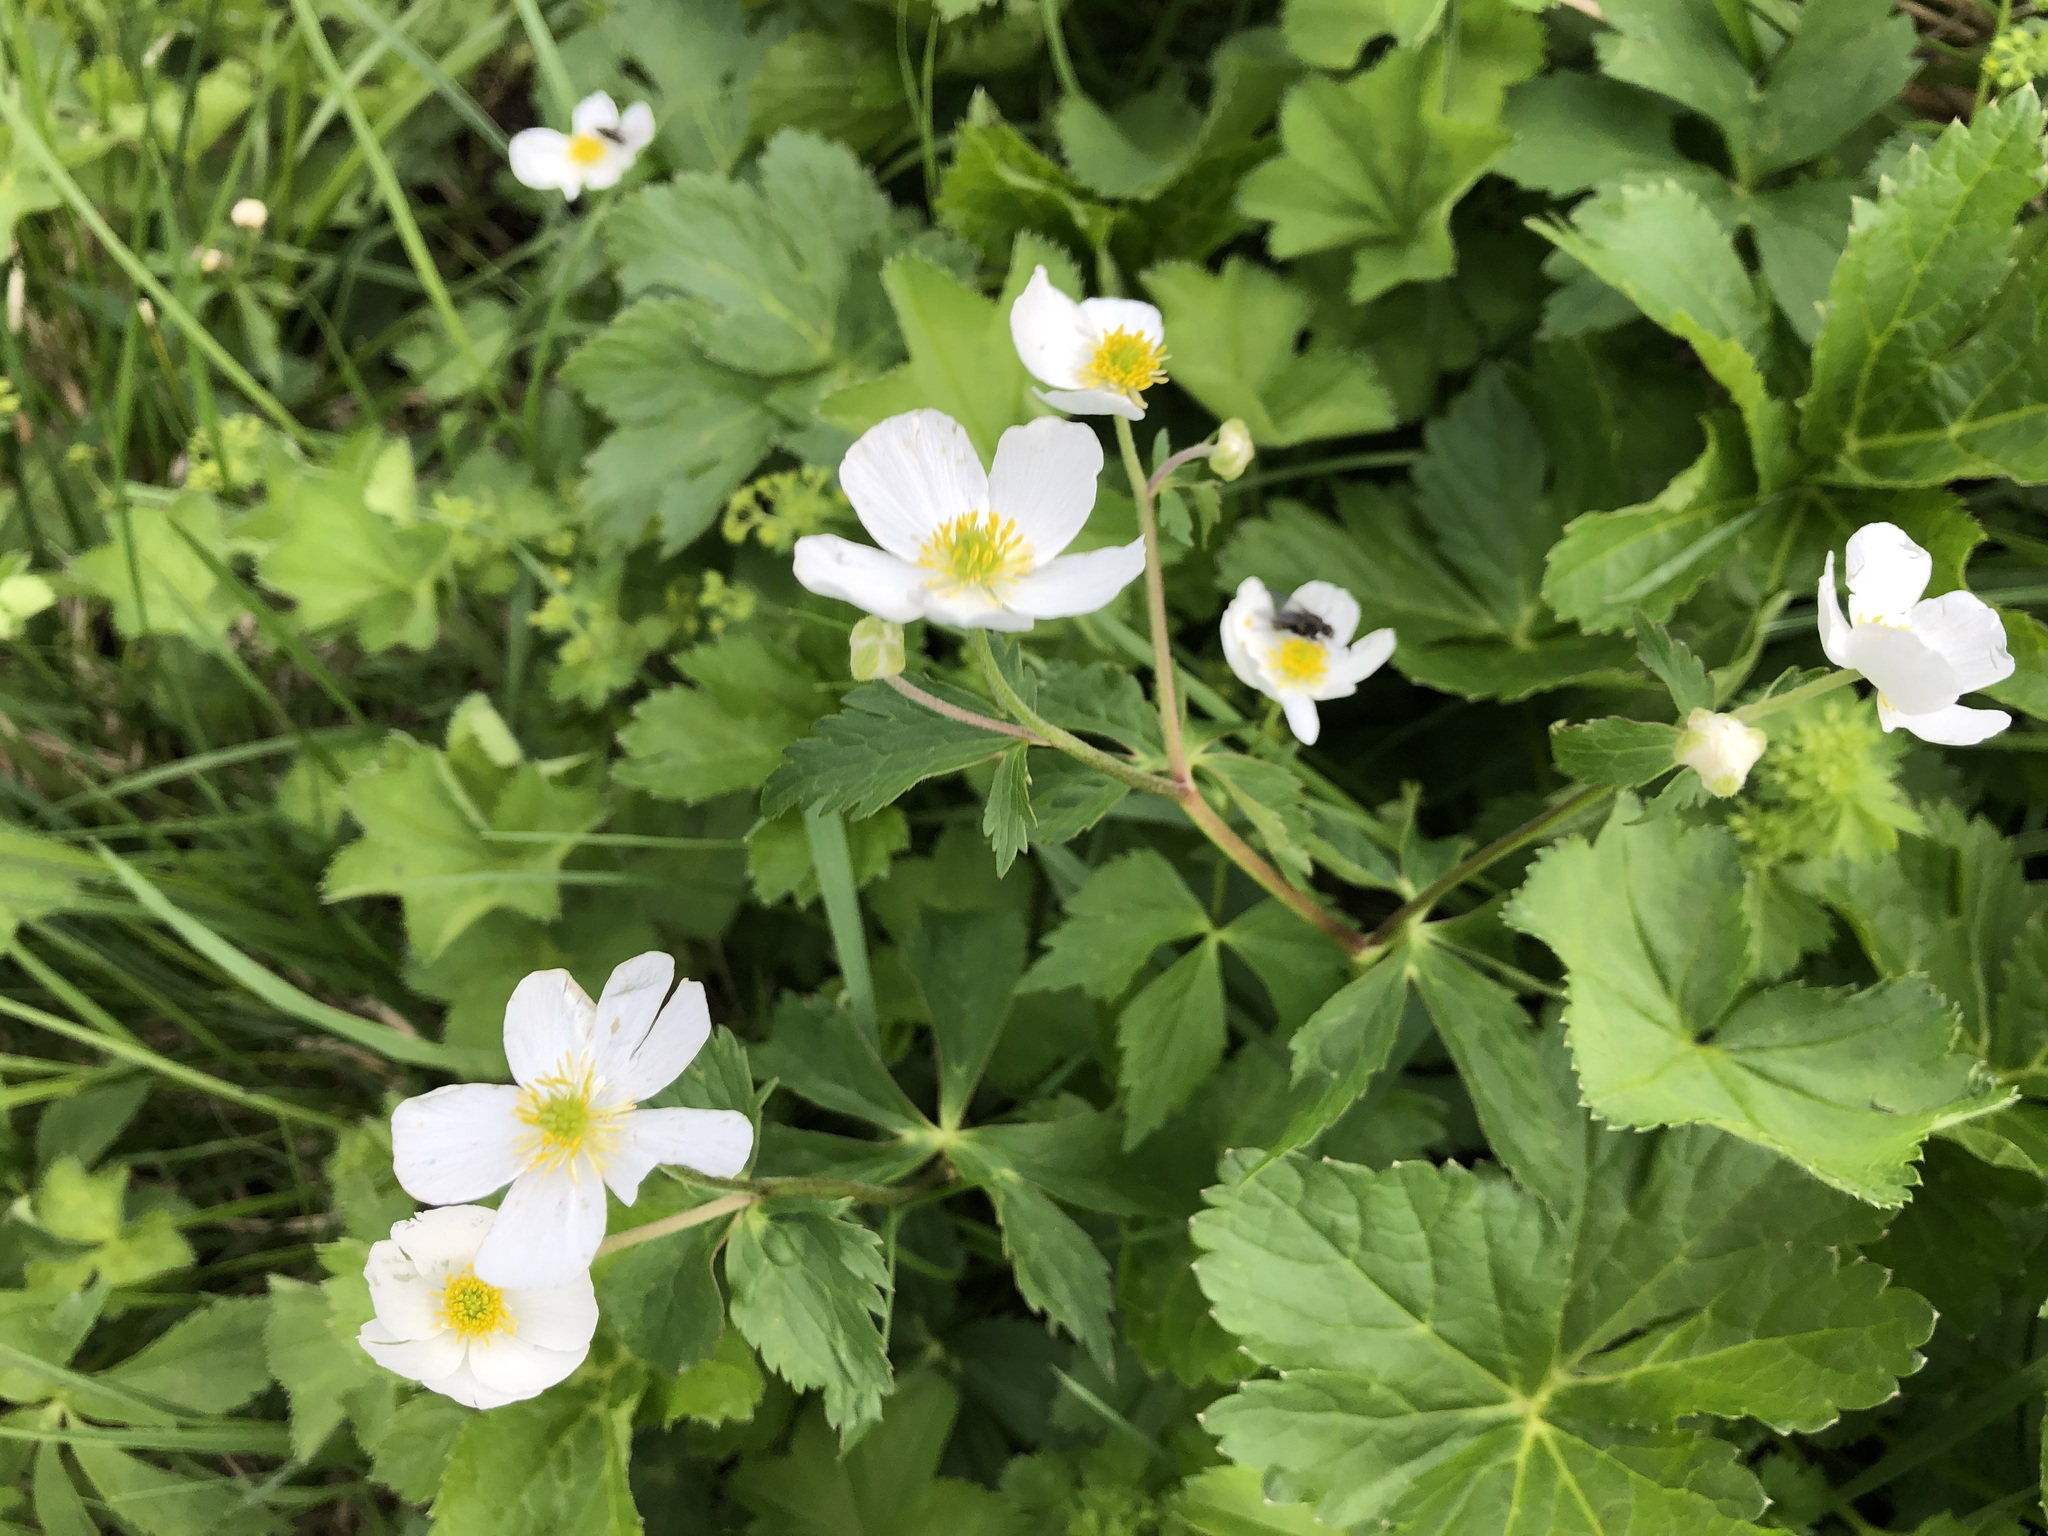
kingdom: Plantae
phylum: Tracheophyta
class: Magnoliopsida
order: Ranunculales
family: Ranunculaceae
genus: Ranunculus
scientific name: Ranunculus aconitifolius
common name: Aconite-leaved buttercup
